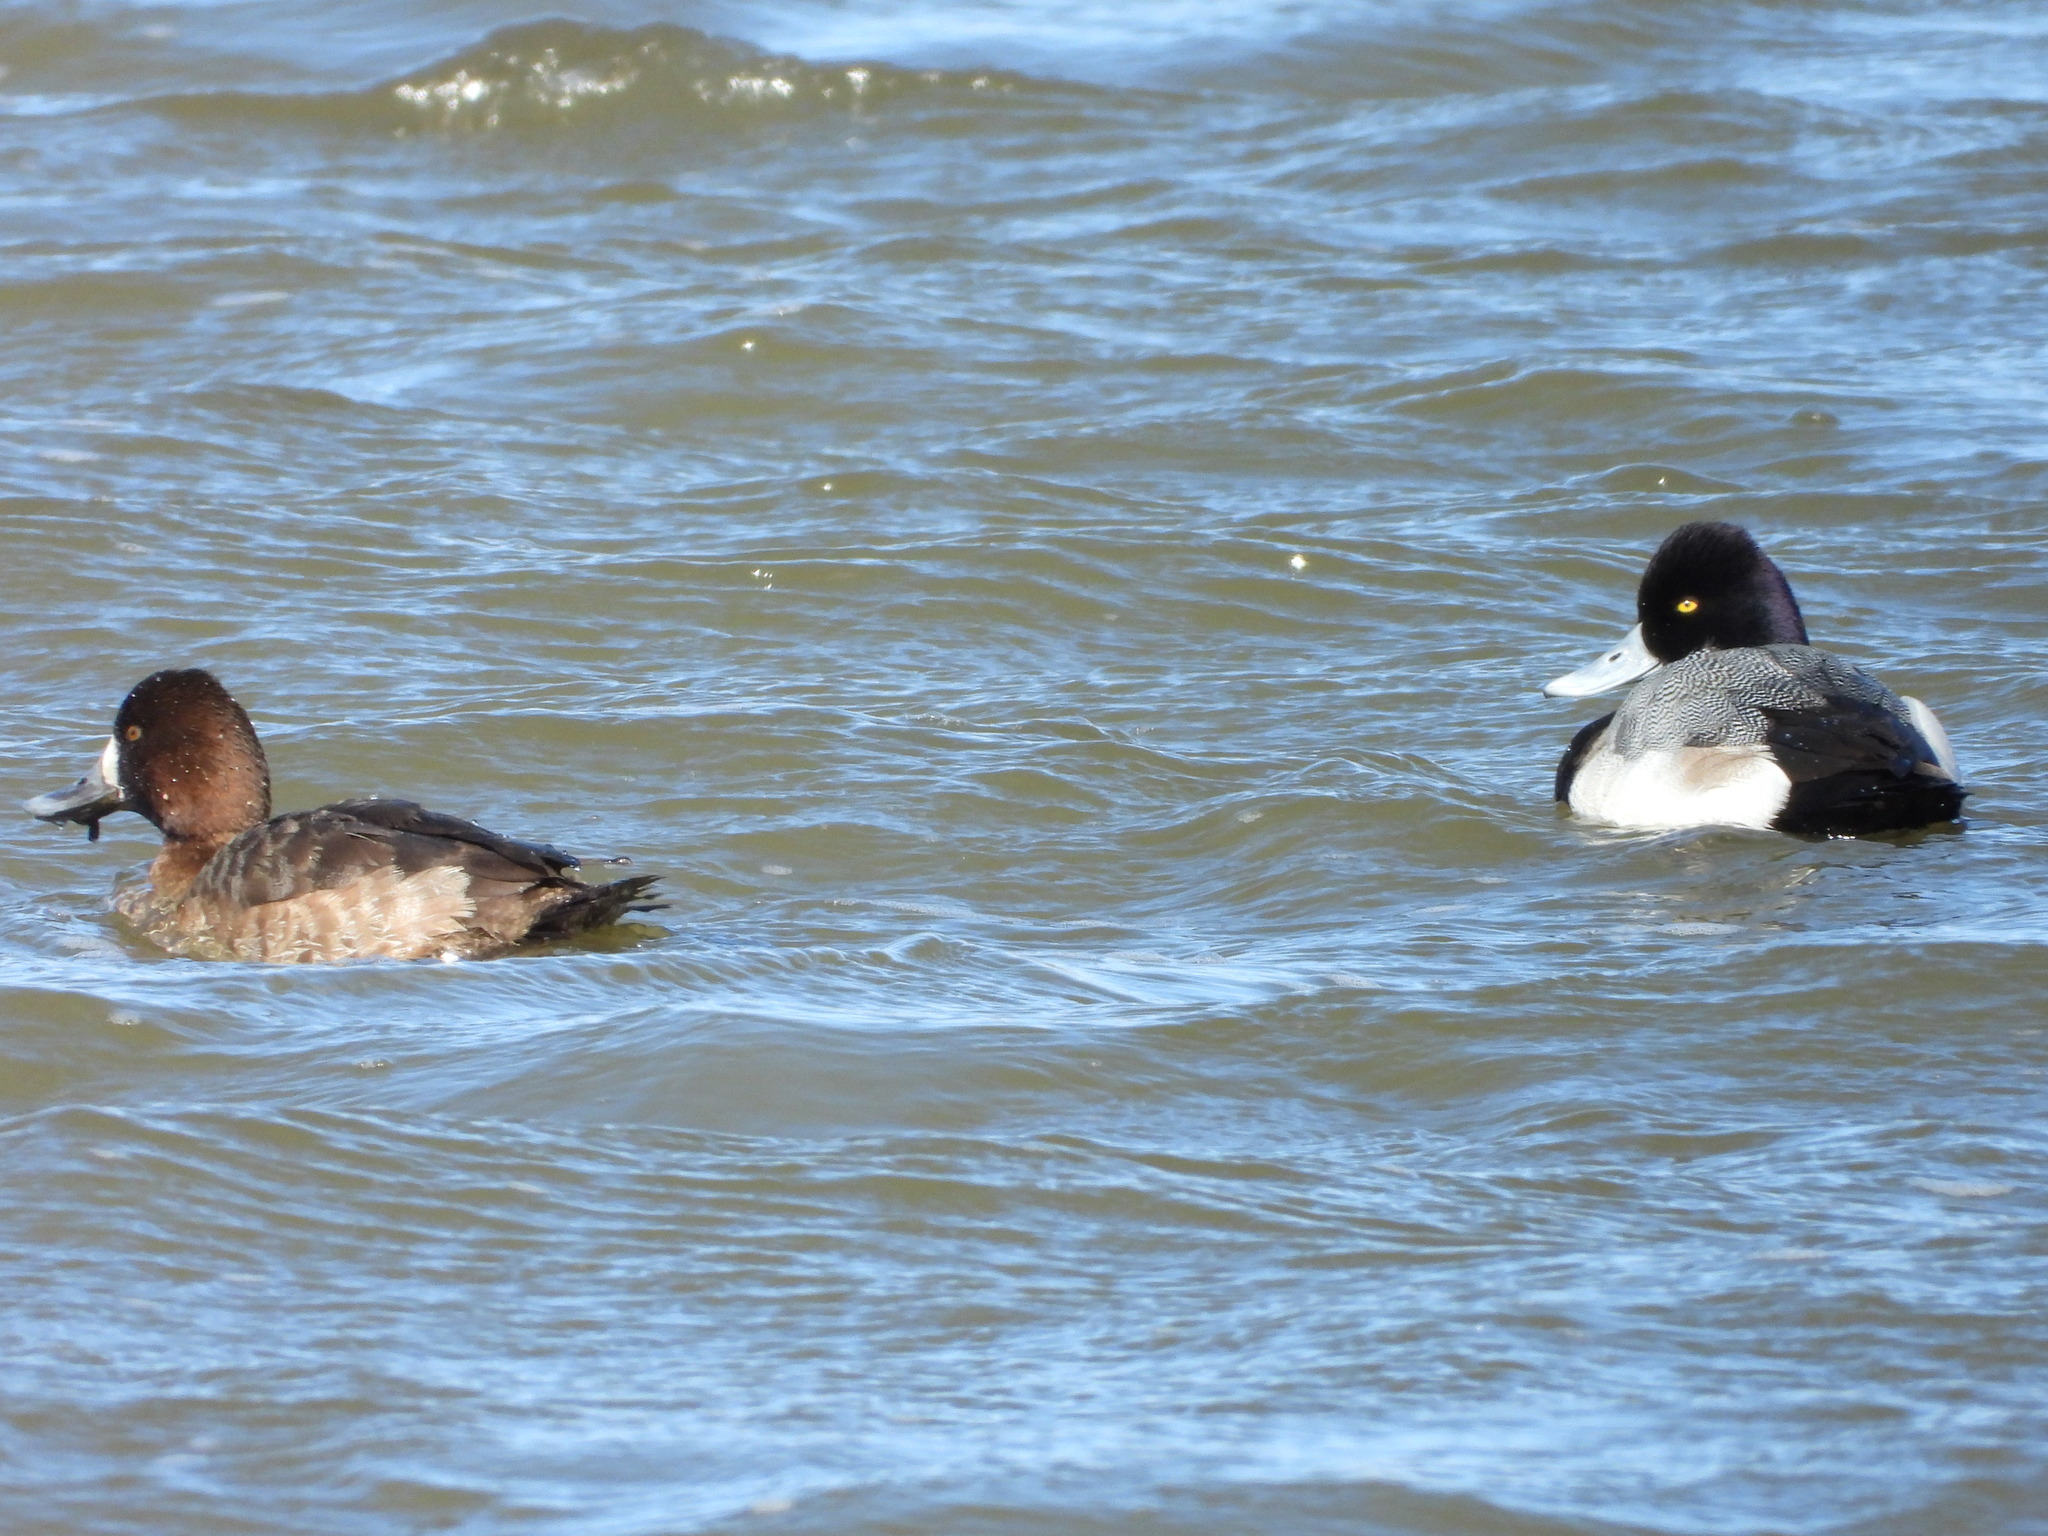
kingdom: Animalia
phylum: Chordata
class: Aves
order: Anseriformes
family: Anatidae
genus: Aythya
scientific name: Aythya affinis
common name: Lesser scaup
